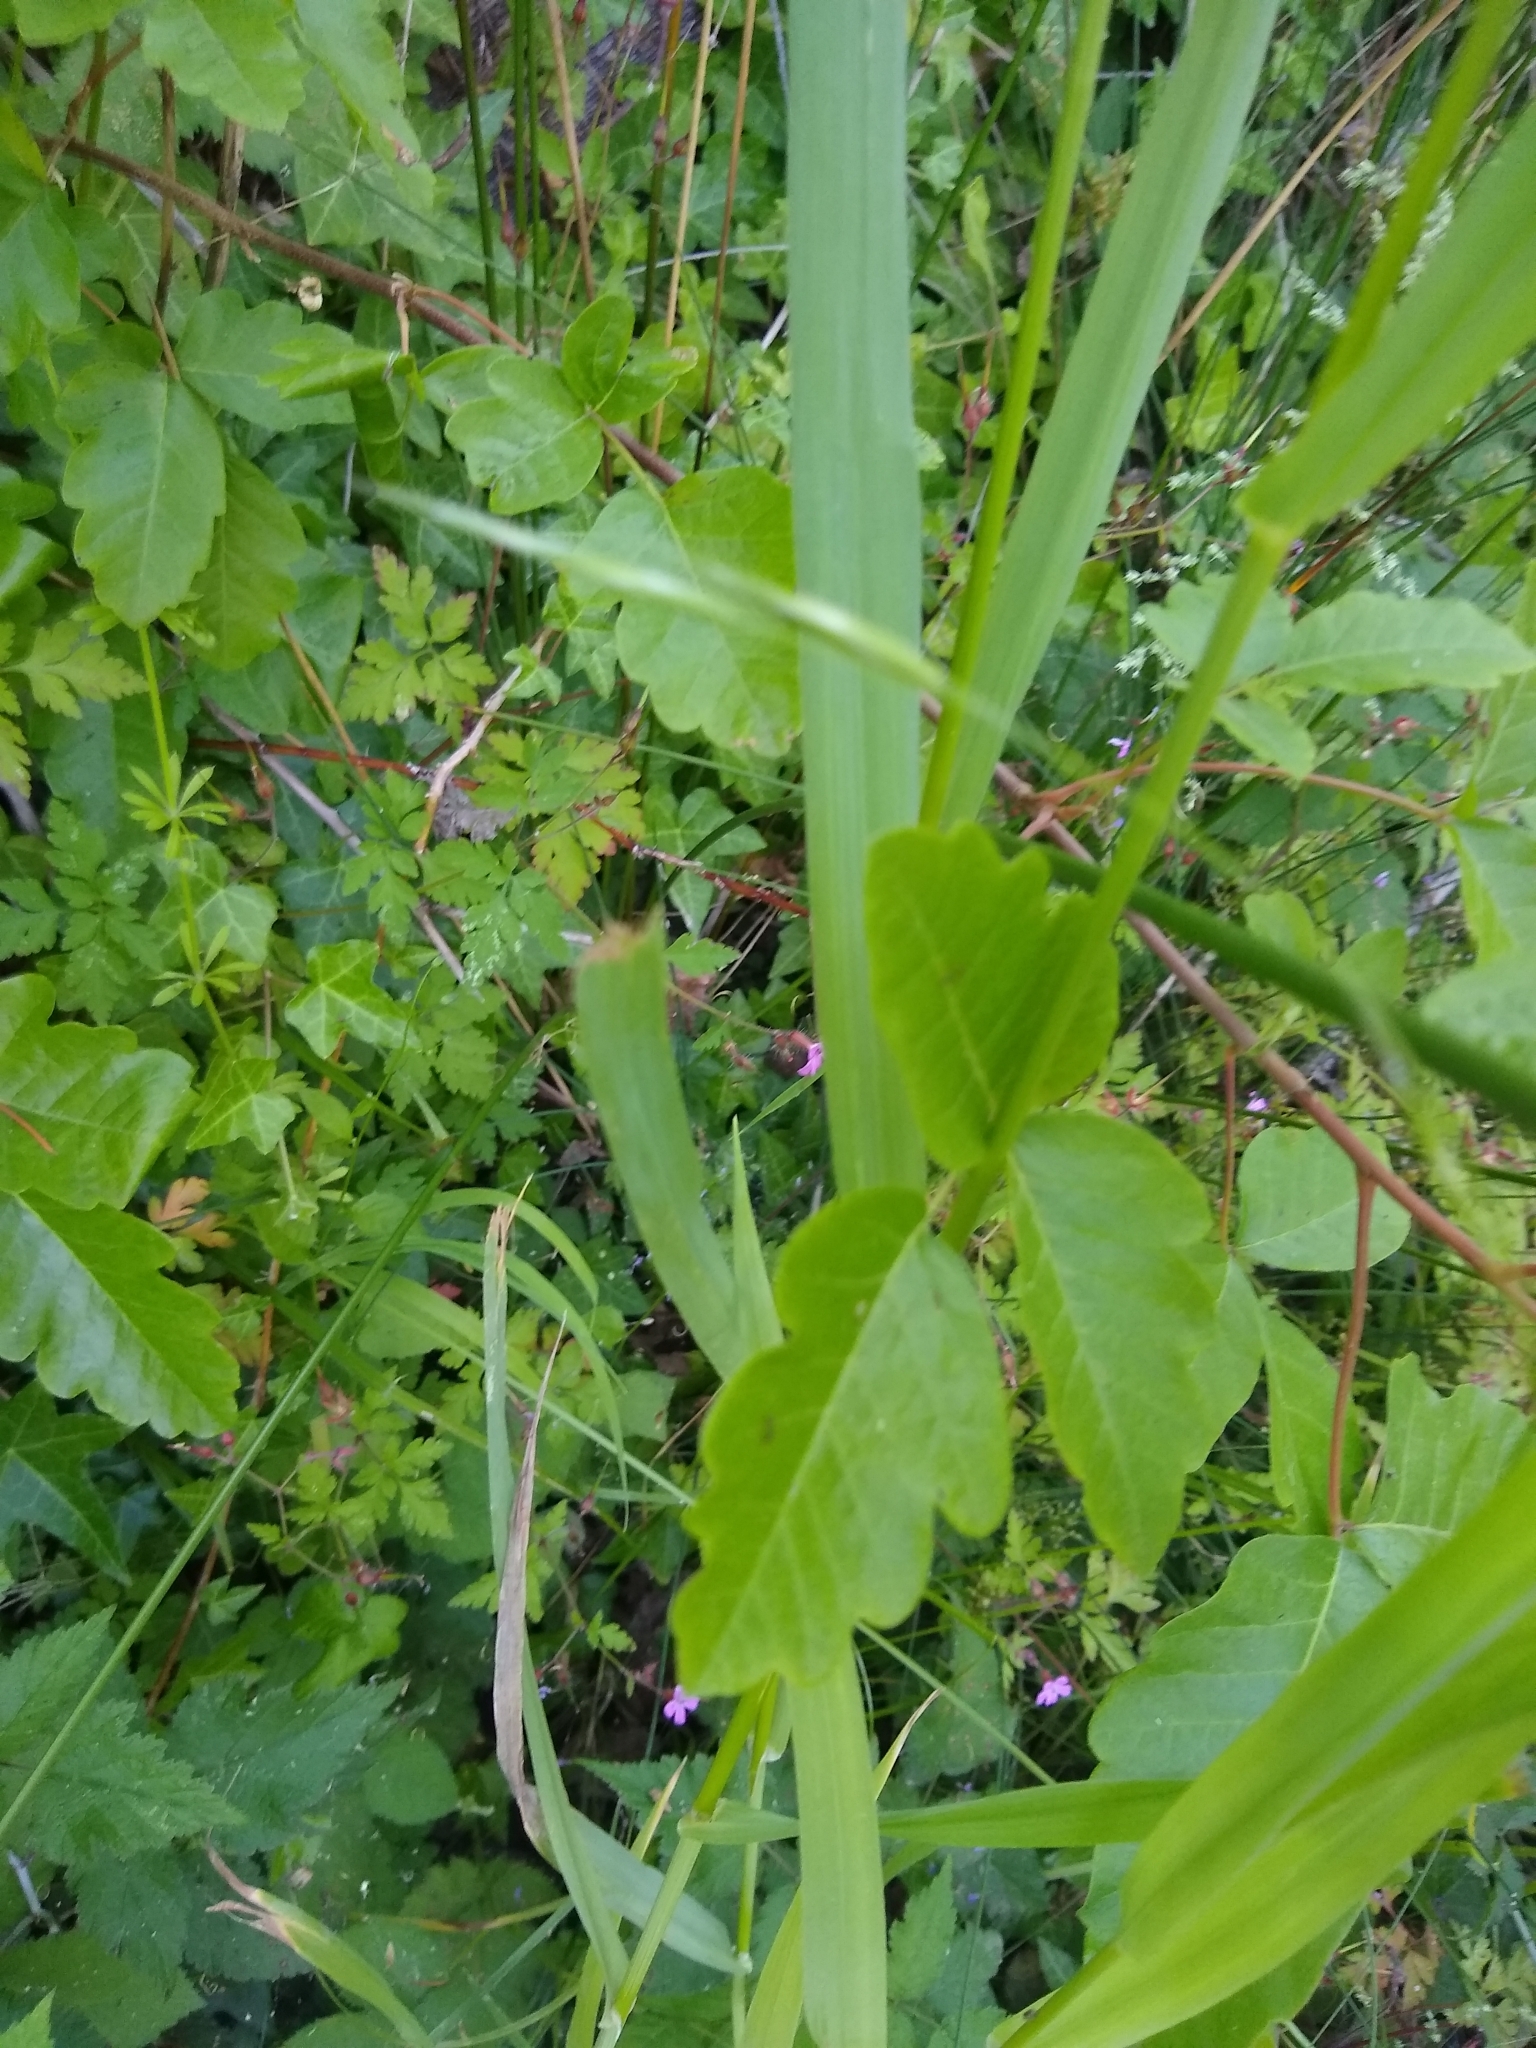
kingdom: Plantae
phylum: Tracheophyta
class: Magnoliopsida
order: Sapindales
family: Anacardiaceae
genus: Toxicodendron
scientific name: Toxicodendron diversilobum
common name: Pacific poison-oak
